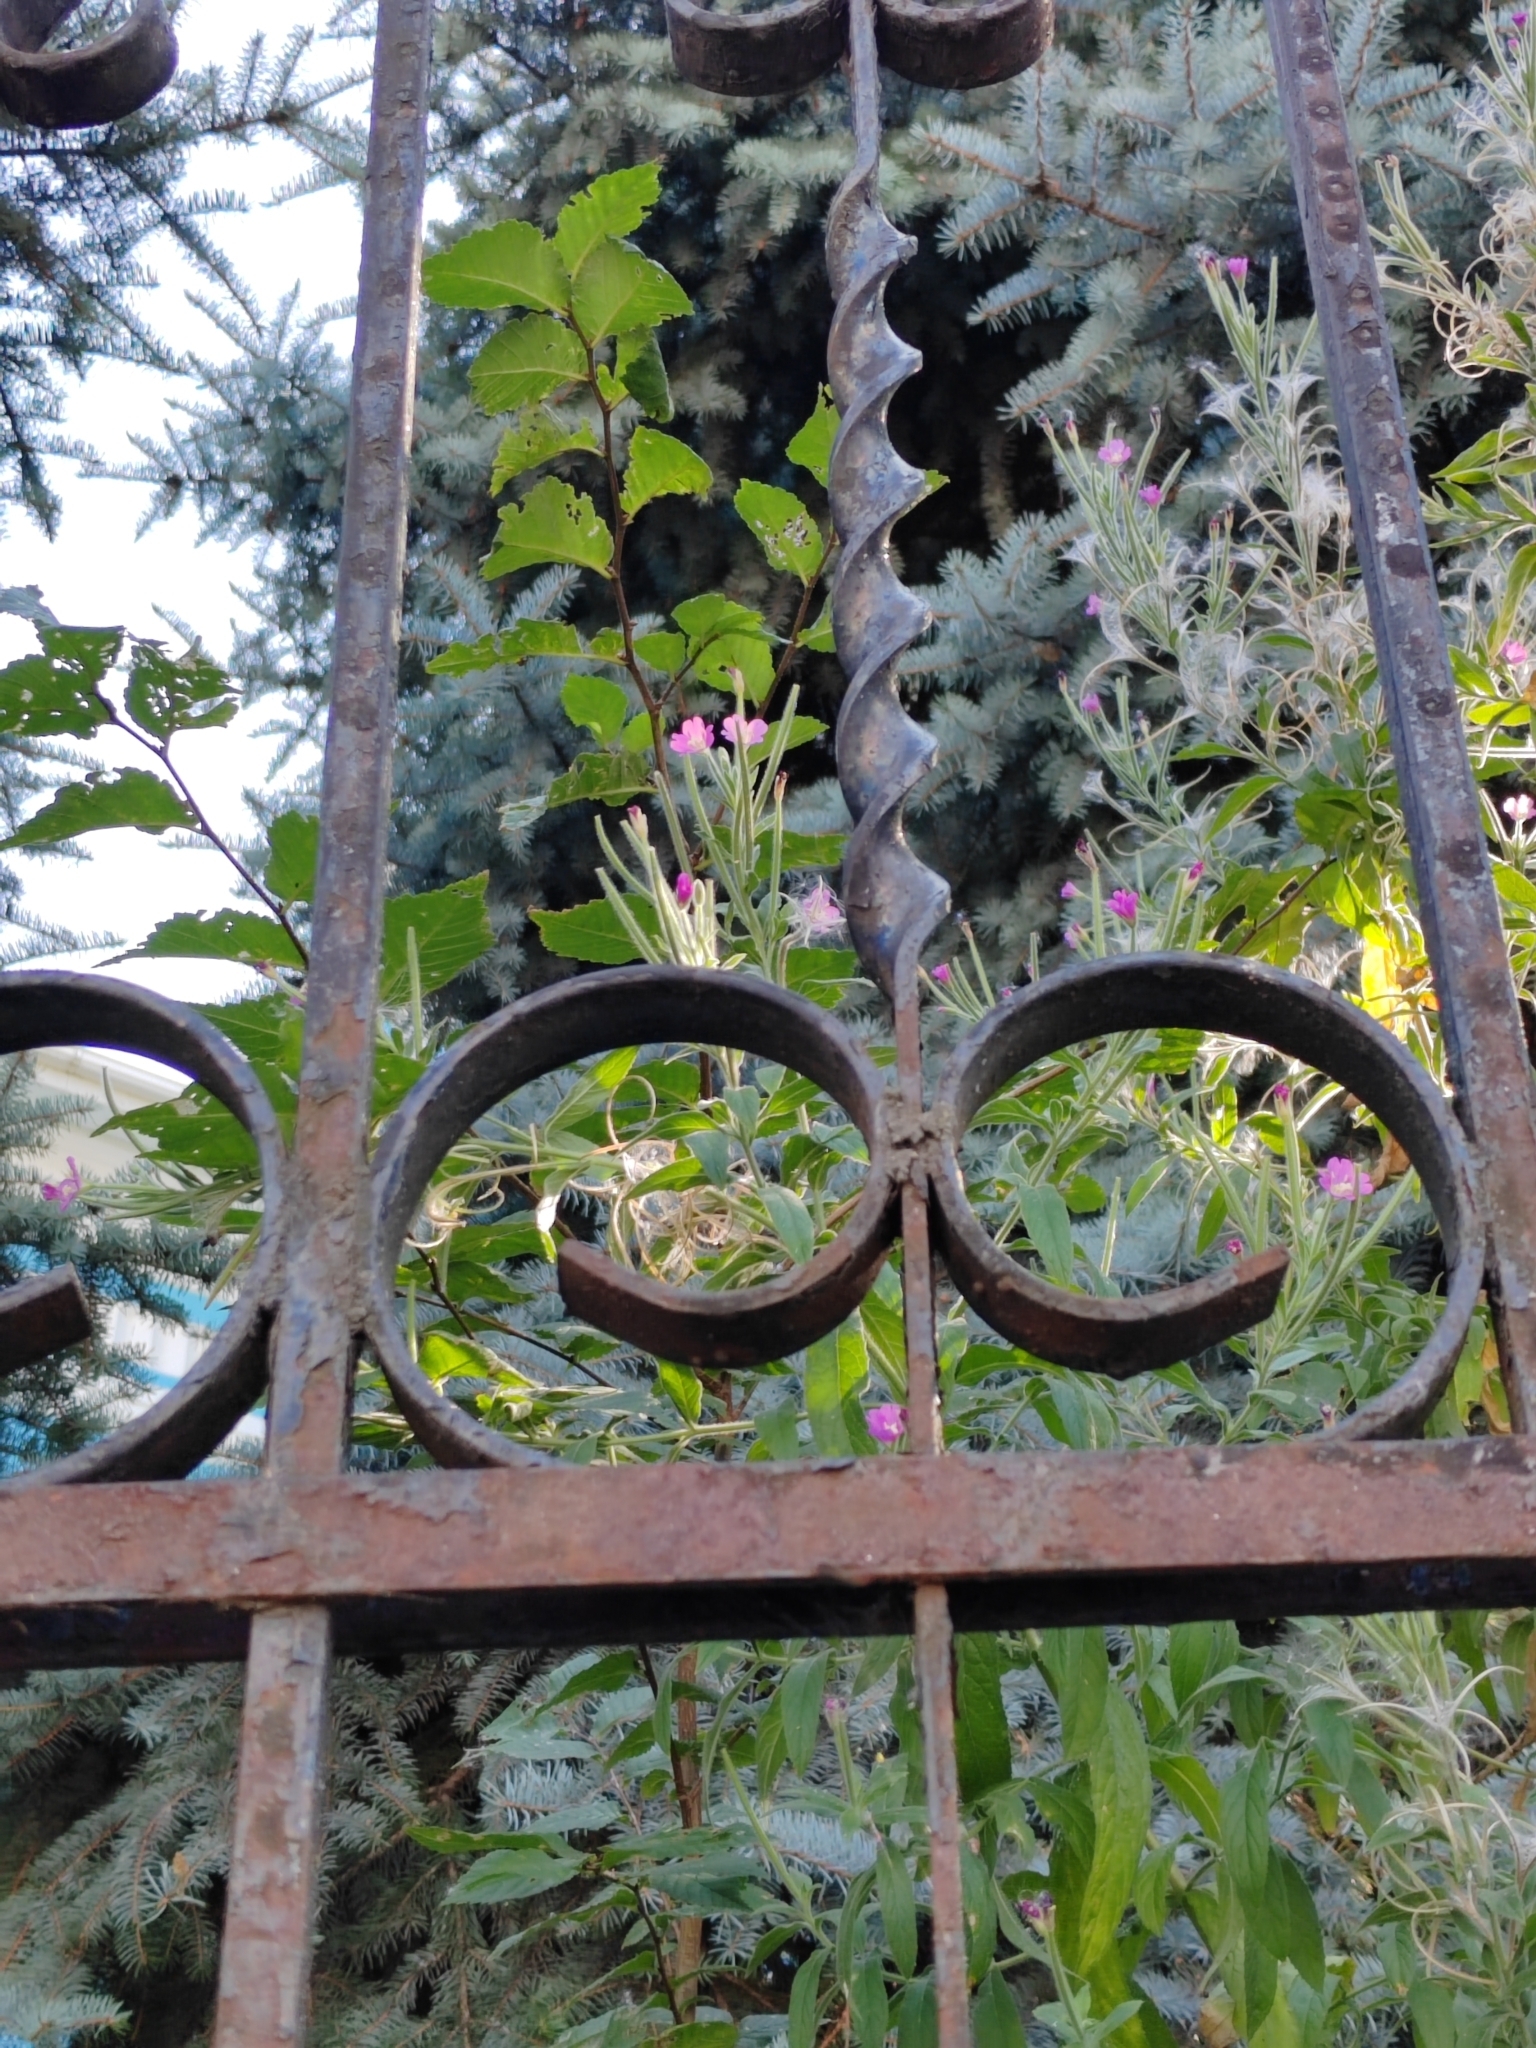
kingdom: Plantae
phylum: Tracheophyta
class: Magnoliopsida
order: Myrtales
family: Onagraceae
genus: Epilobium
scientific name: Epilobium hirsutum
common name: Great willowherb
